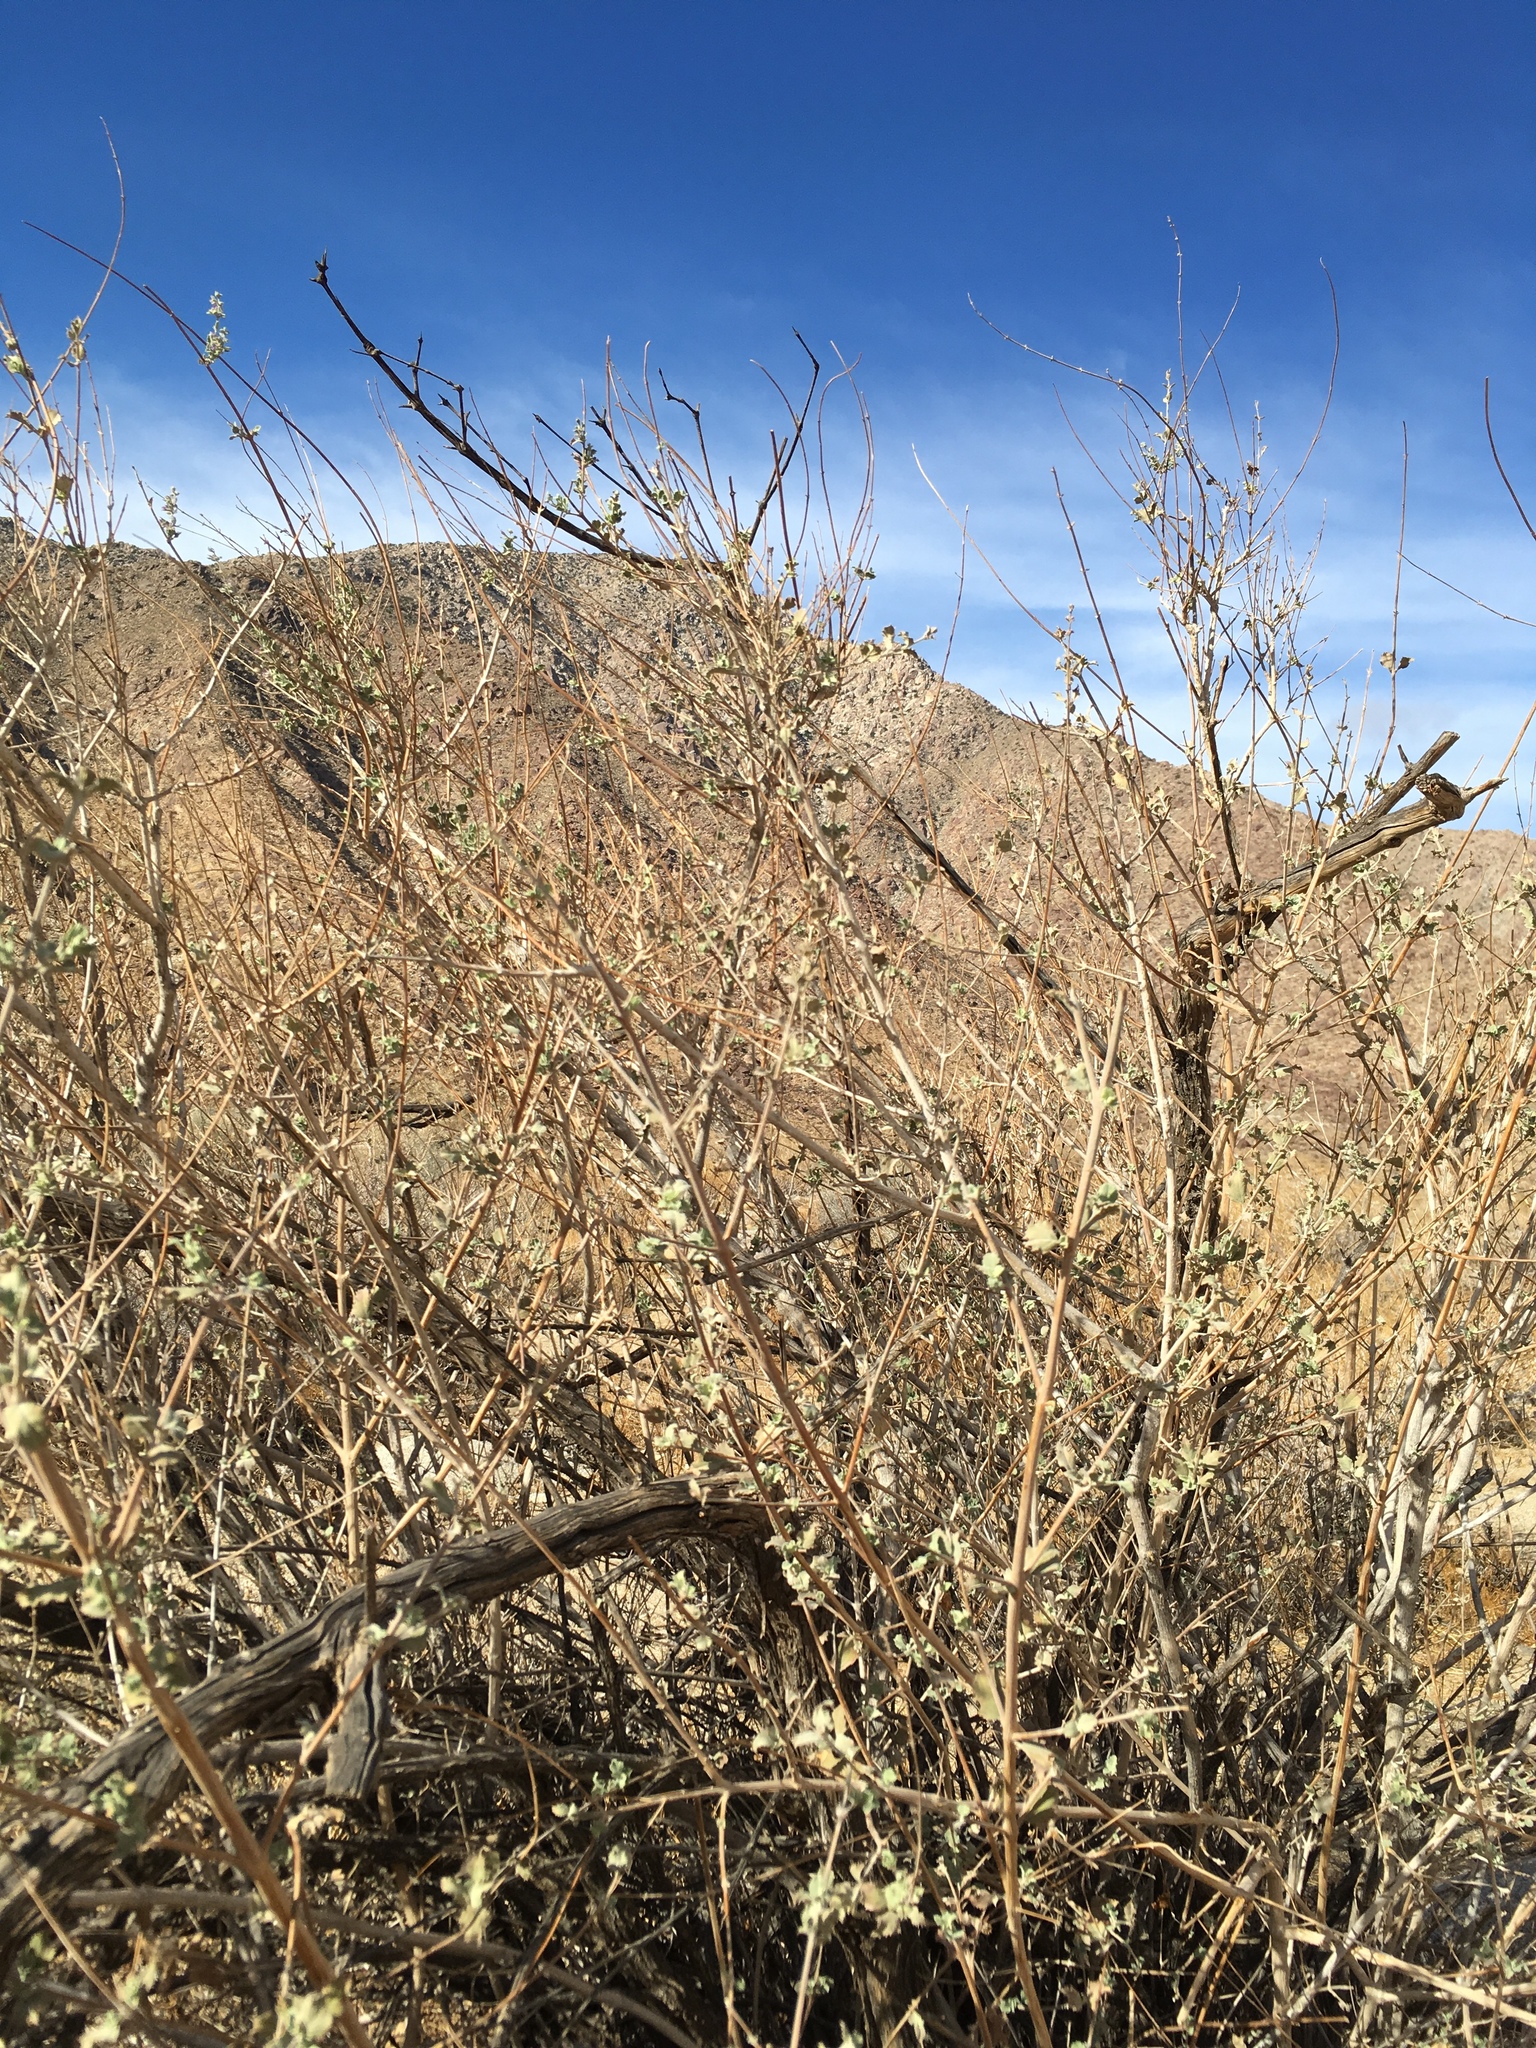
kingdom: Plantae
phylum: Tracheophyta
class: Magnoliopsida
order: Lamiales
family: Lamiaceae
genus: Condea
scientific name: Condea emoryi
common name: Chia
